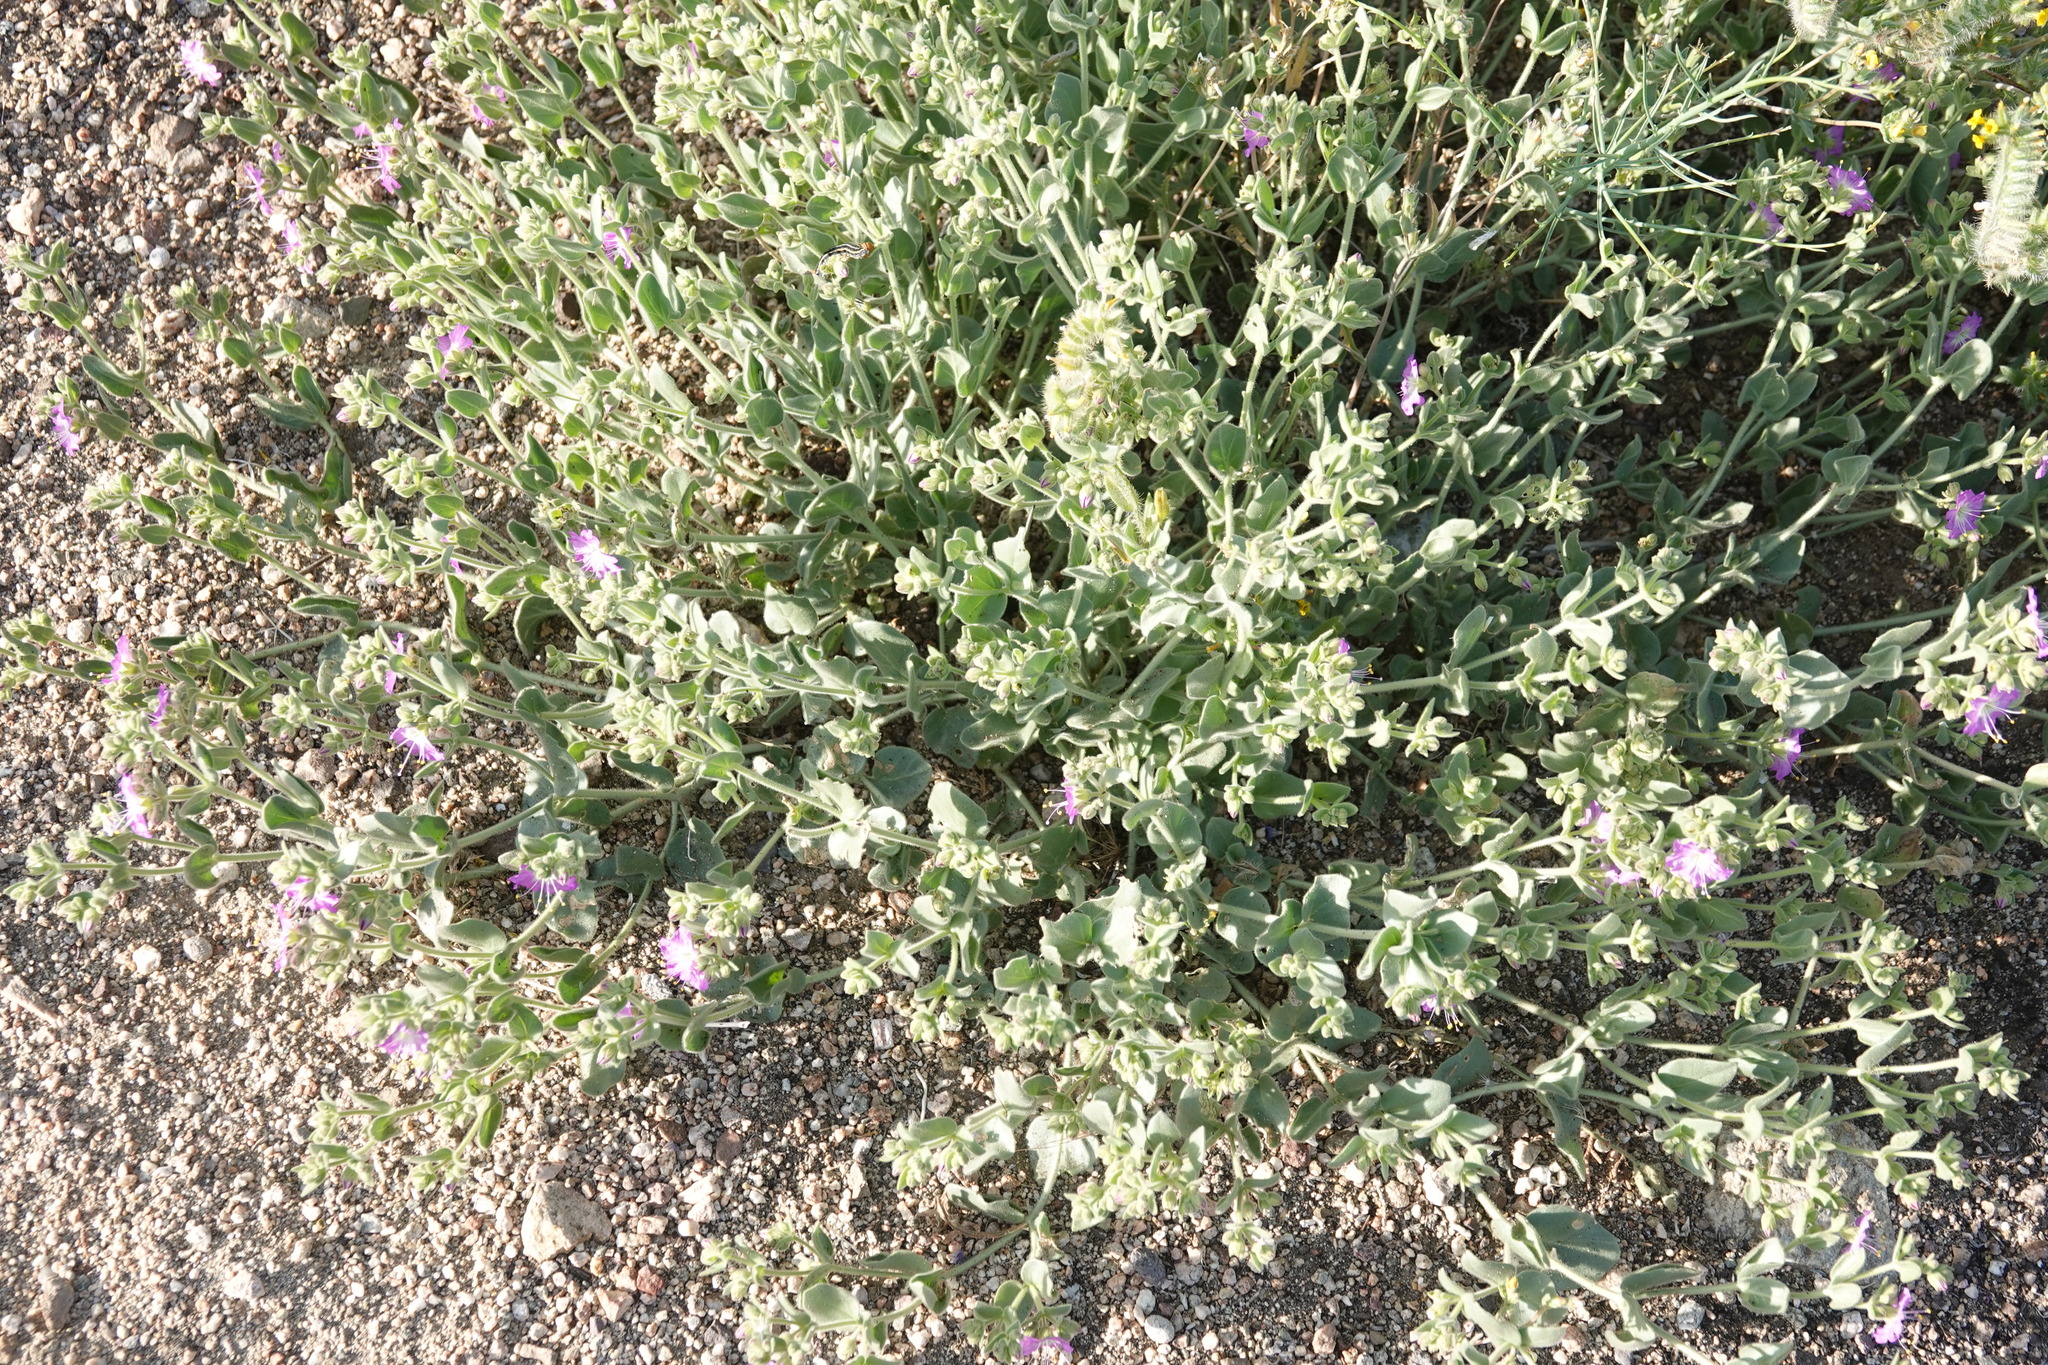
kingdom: Plantae
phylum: Tracheophyta
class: Magnoliopsida
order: Caryophyllales
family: Nyctaginaceae
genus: Mirabilis
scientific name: Mirabilis laevis
